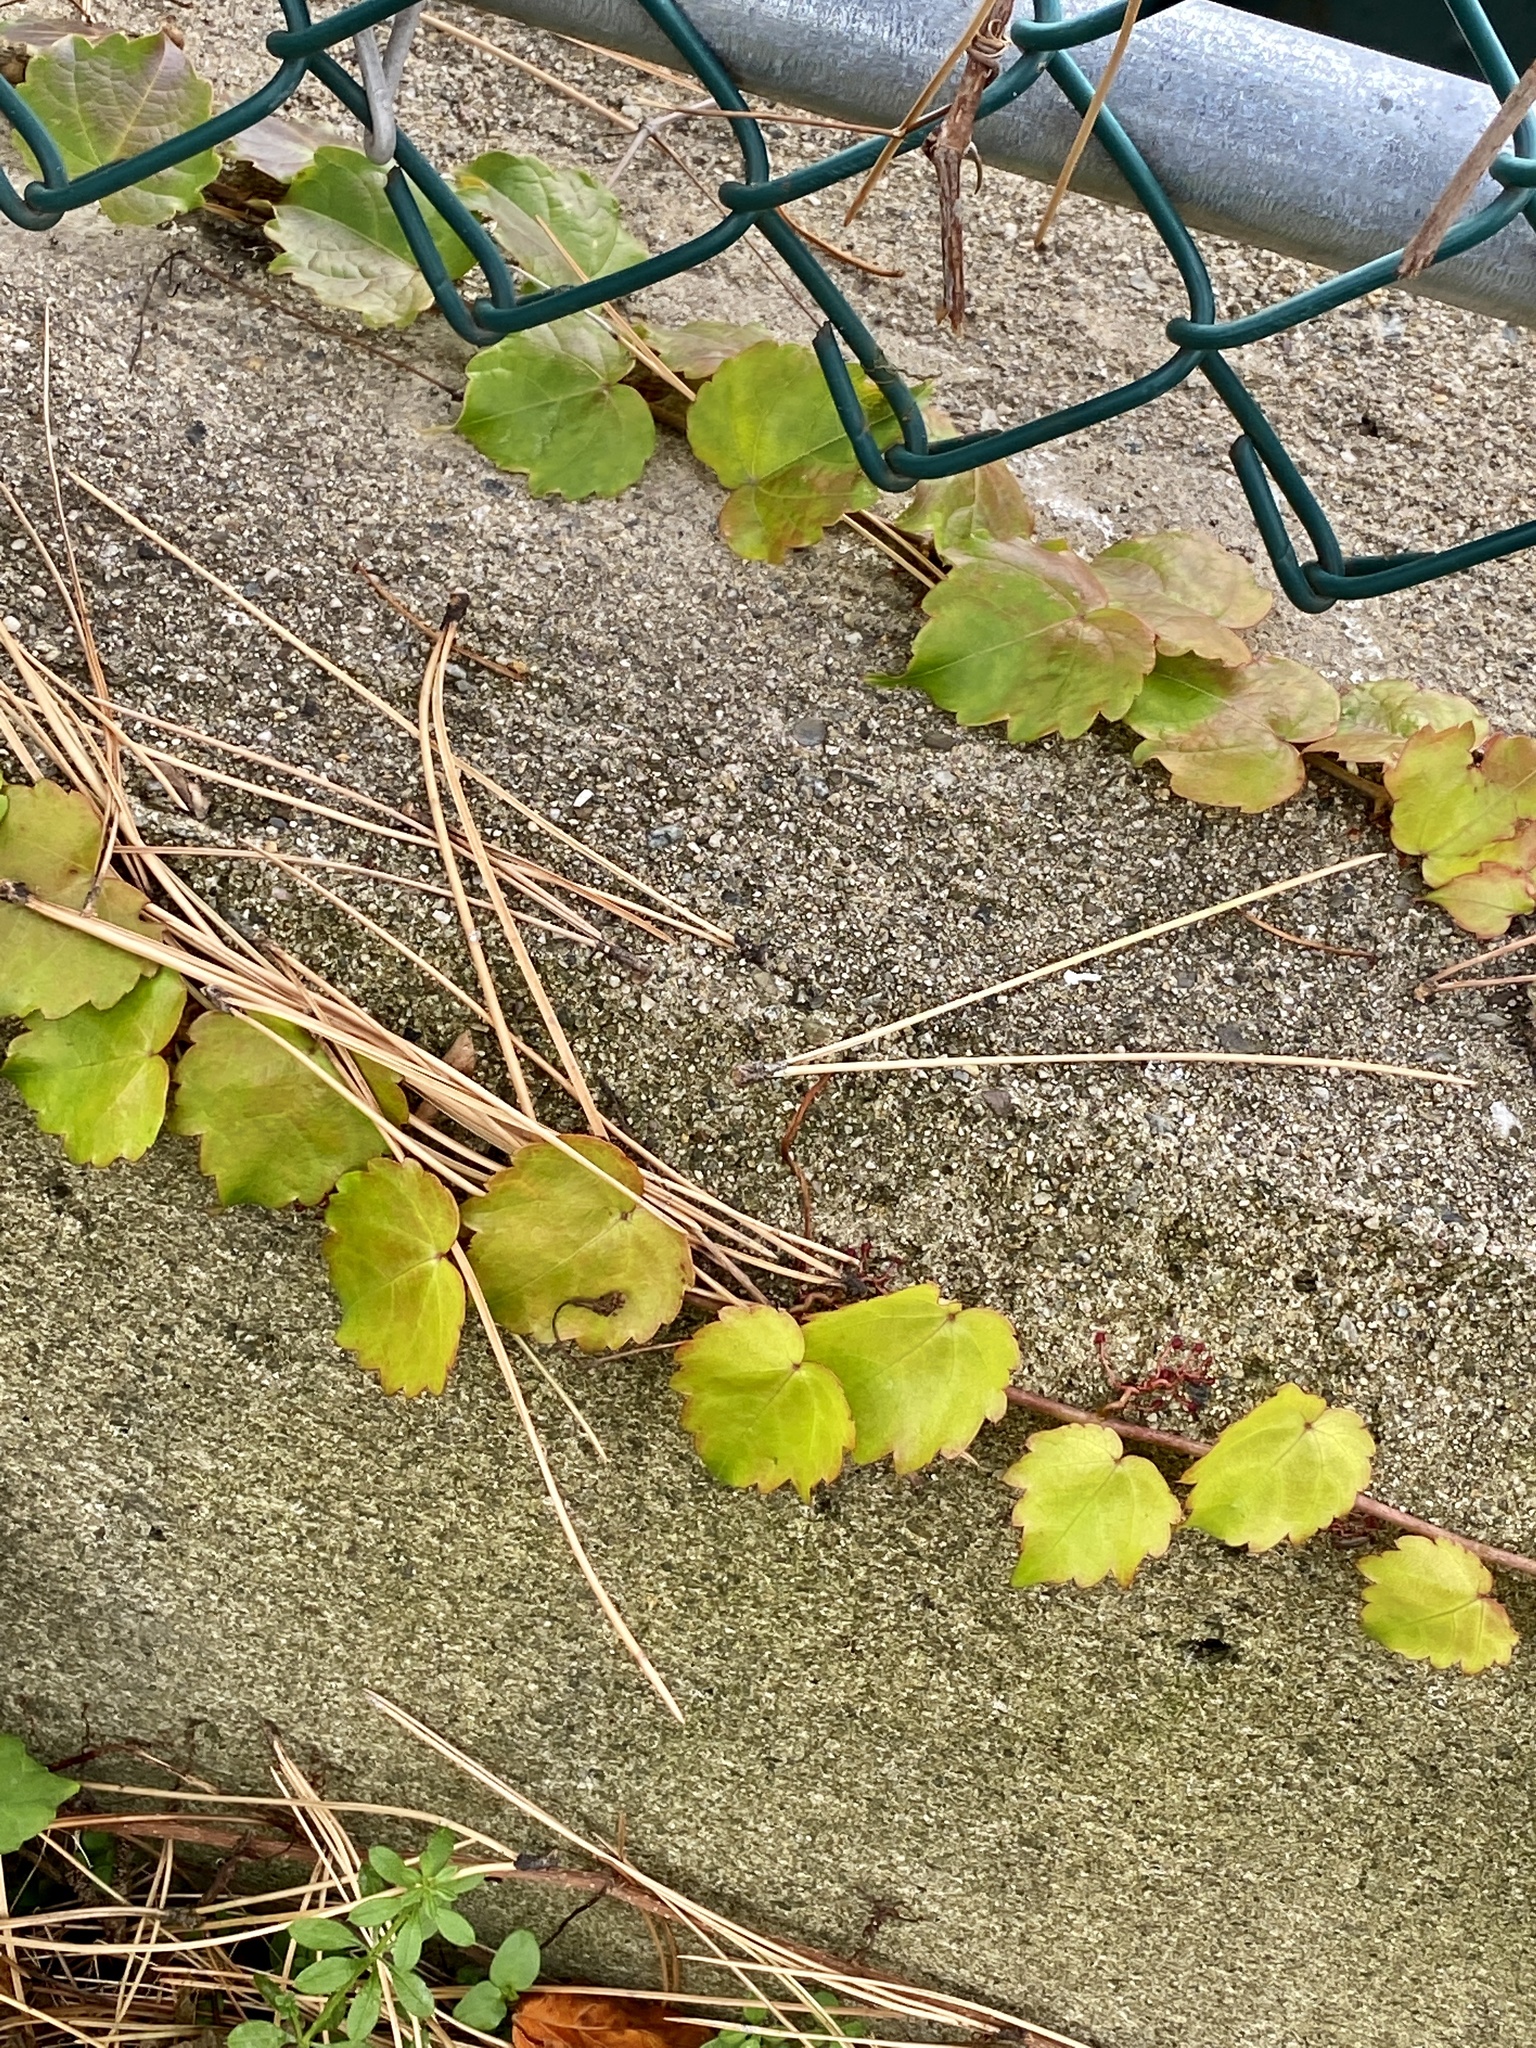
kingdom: Plantae
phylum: Tracheophyta
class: Magnoliopsida
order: Vitales
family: Vitaceae
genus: Parthenocissus
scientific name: Parthenocissus tricuspidata
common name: Boston ivy
